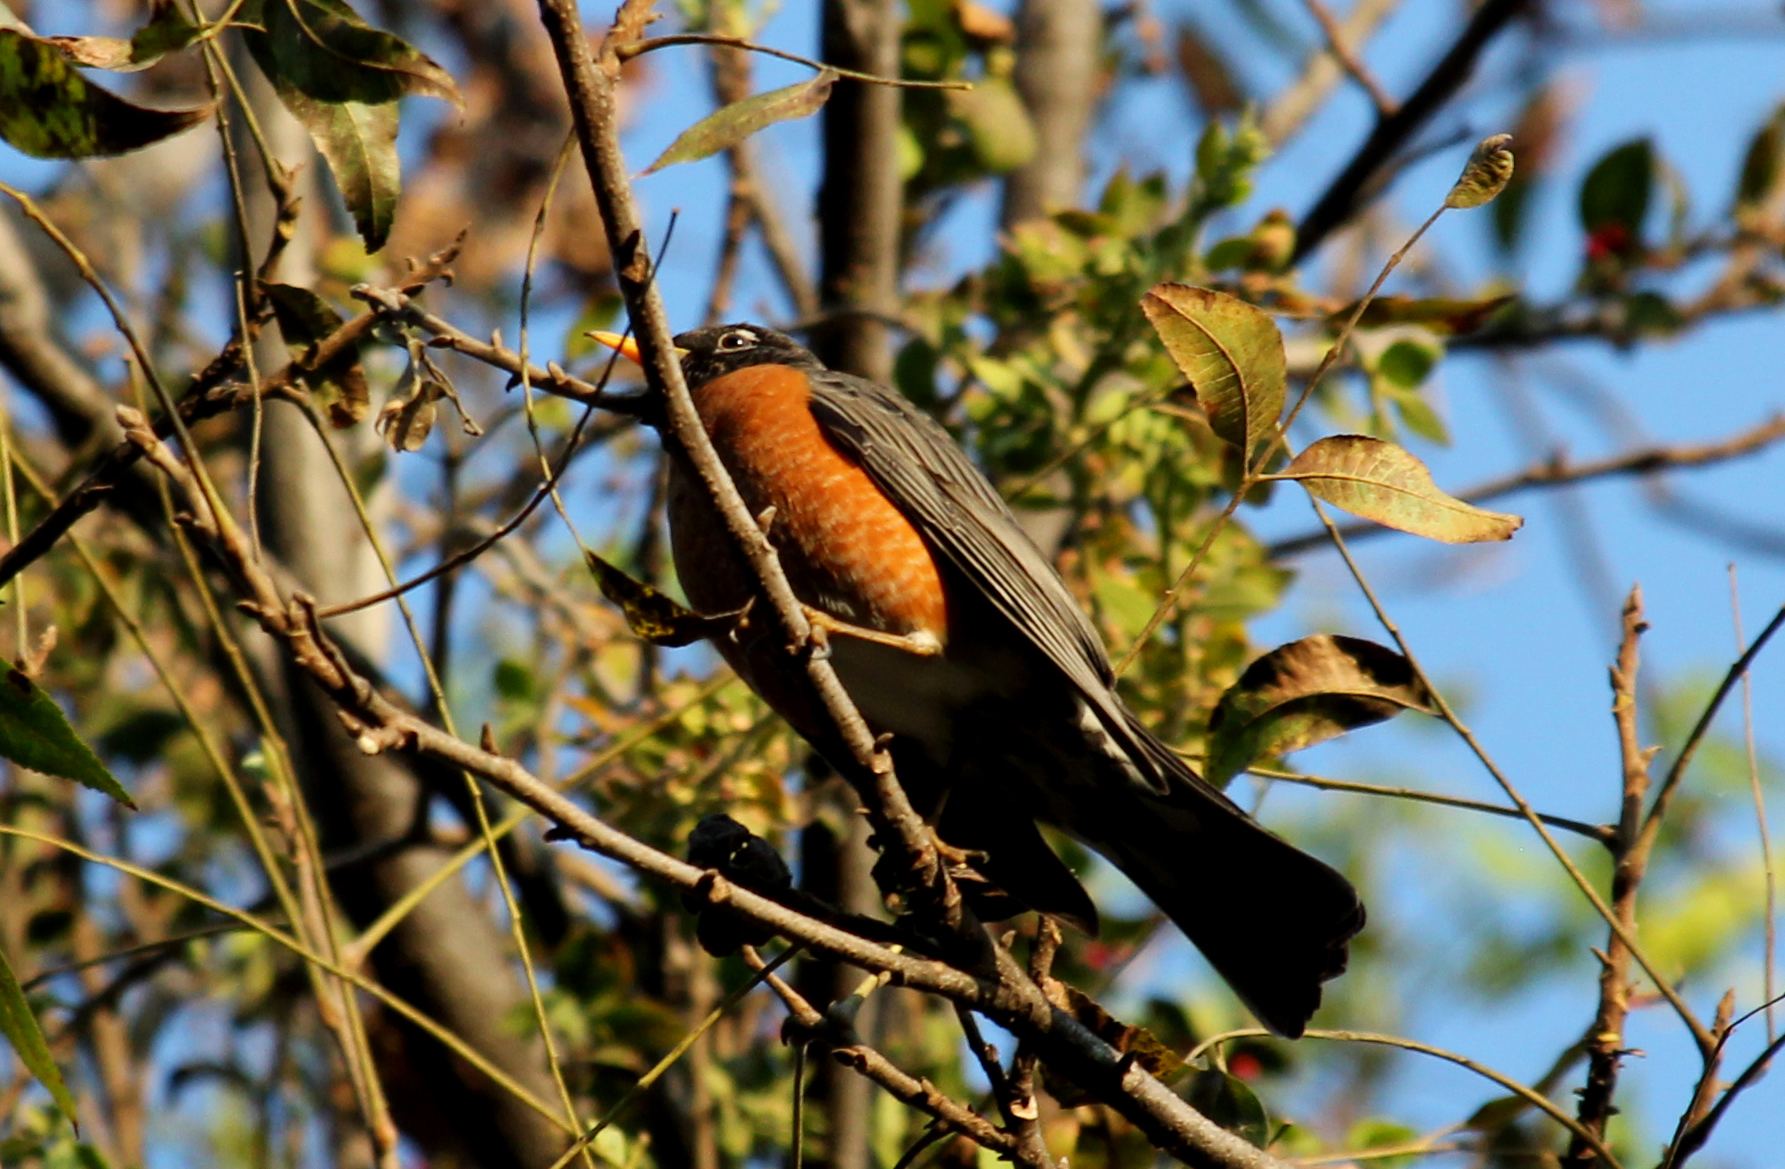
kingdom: Animalia
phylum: Chordata
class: Aves
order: Passeriformes
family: Turdidae
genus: Turdus
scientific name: Turdus migratorius
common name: American robin
